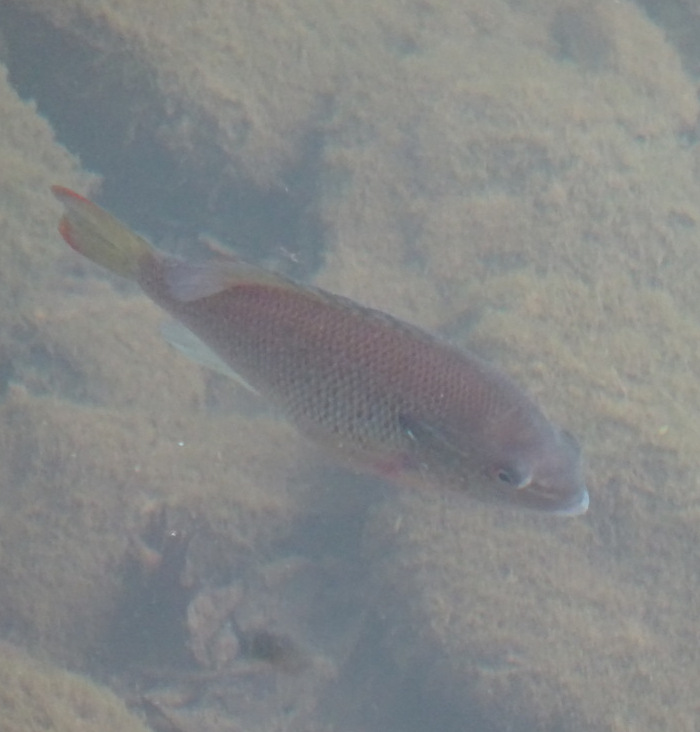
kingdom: Animalia
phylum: Chordata
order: Perciformes
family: Centrarchidae
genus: Lepomis
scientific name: Lepomis auritus
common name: Redbreast sunfish
